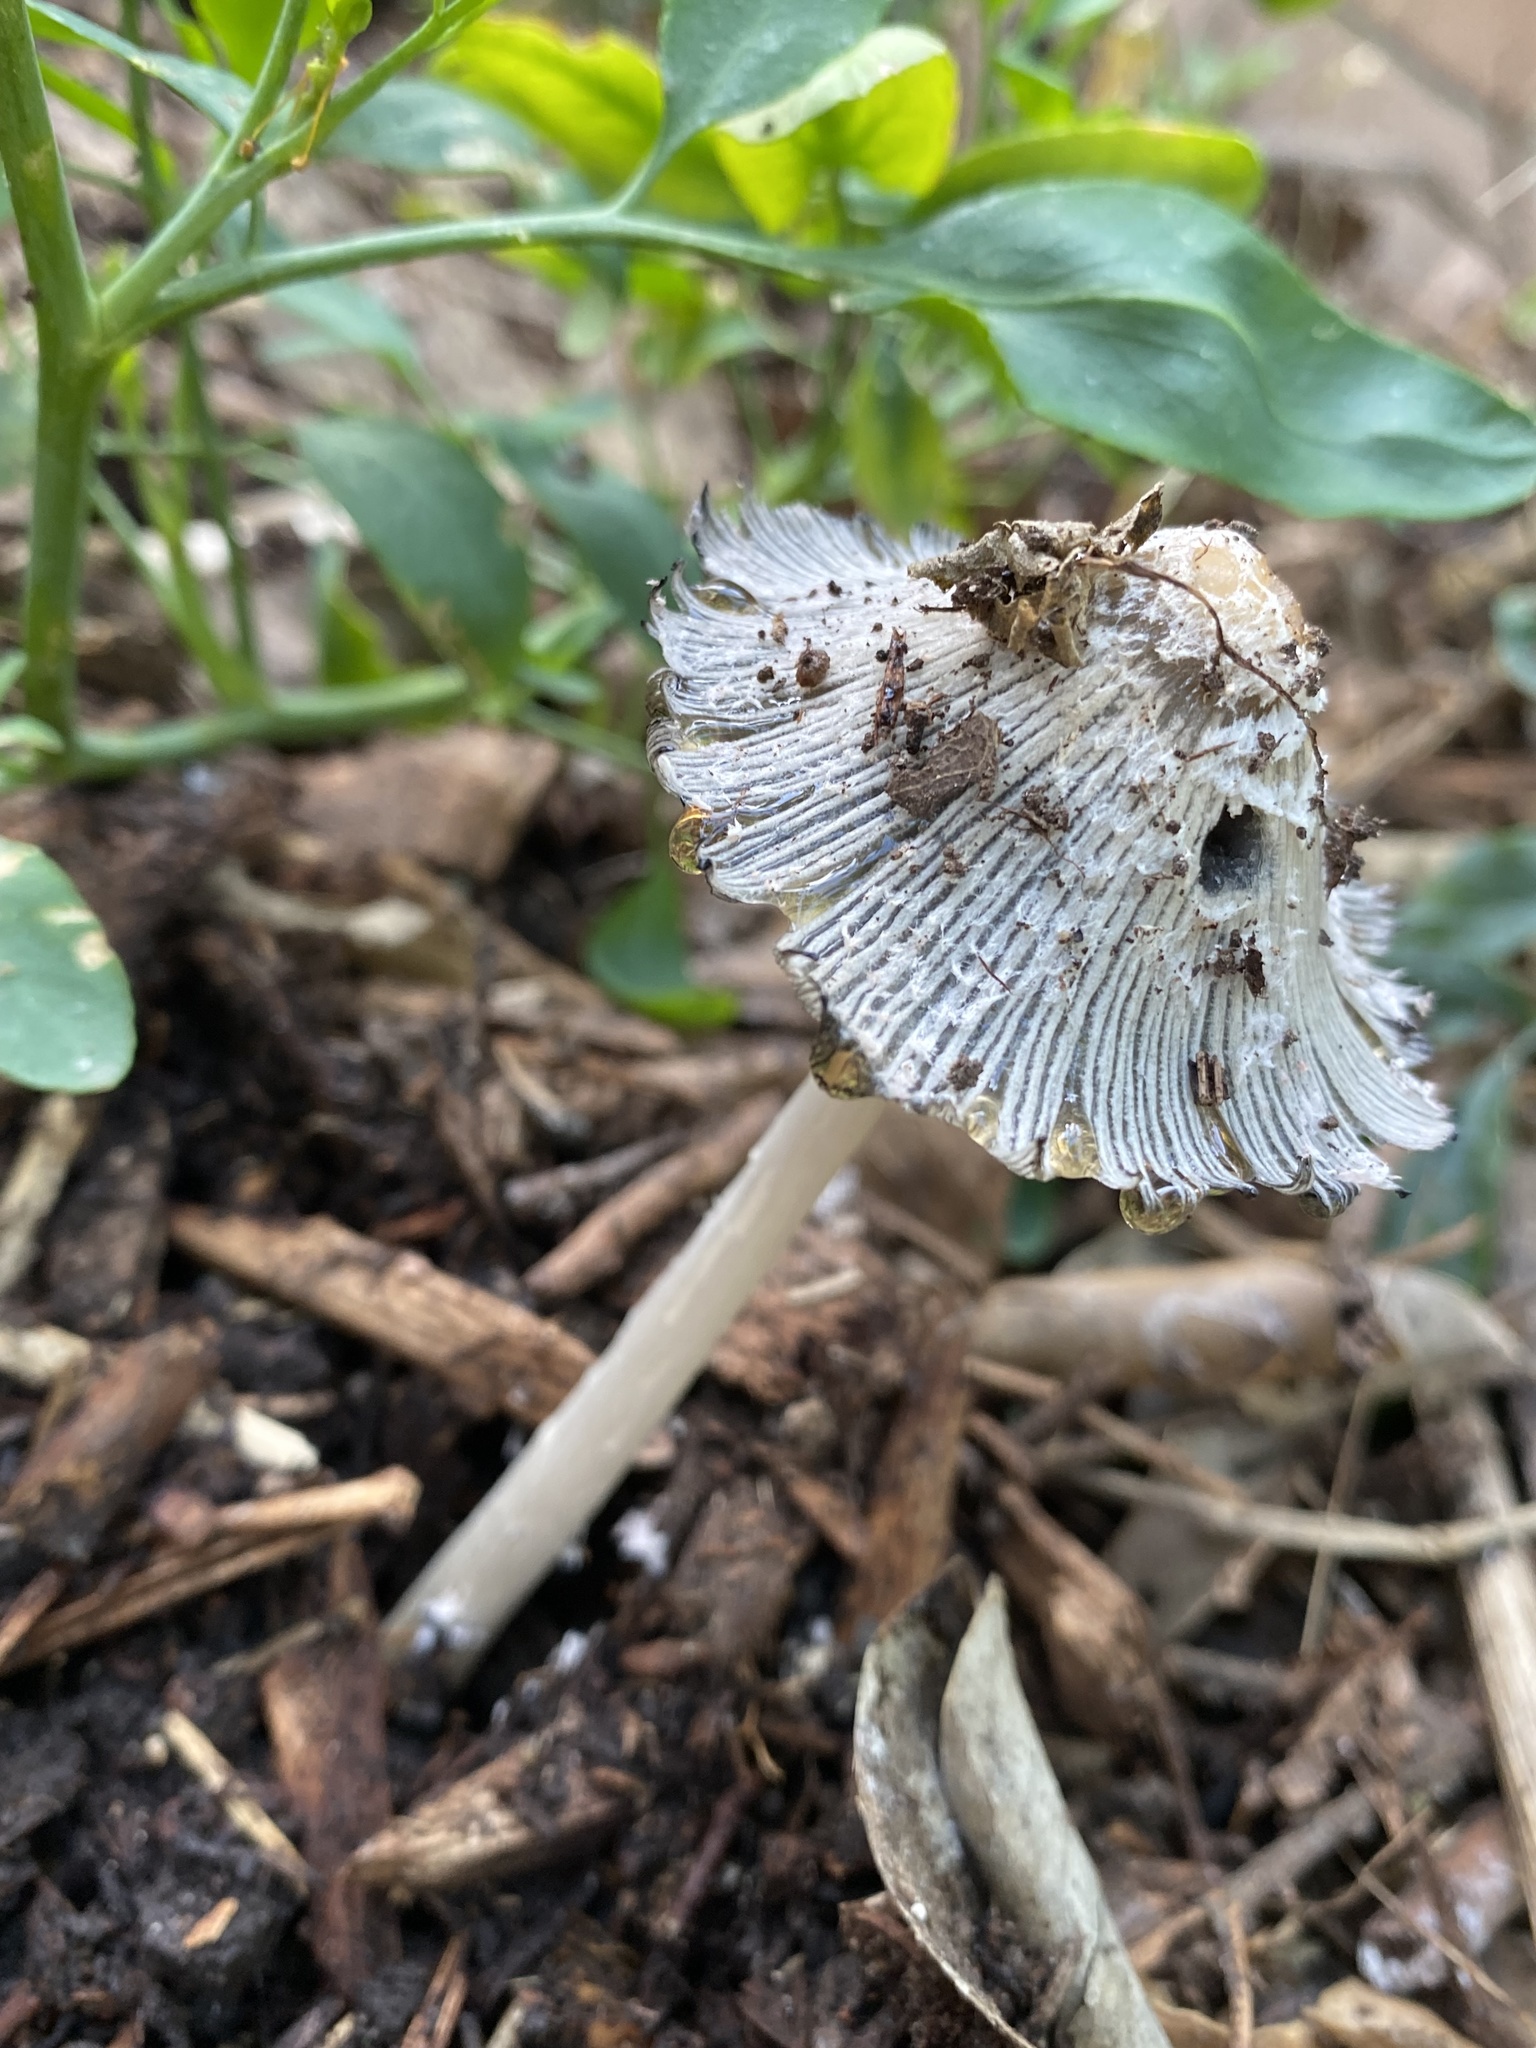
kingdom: Fungi
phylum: Basidiomycota
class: Agaricomycetes
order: Agaricales
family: Psathyrellaceae
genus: Coprinopsis
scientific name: Coprinopsis lagopus
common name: Hare'sfoot inkcap
